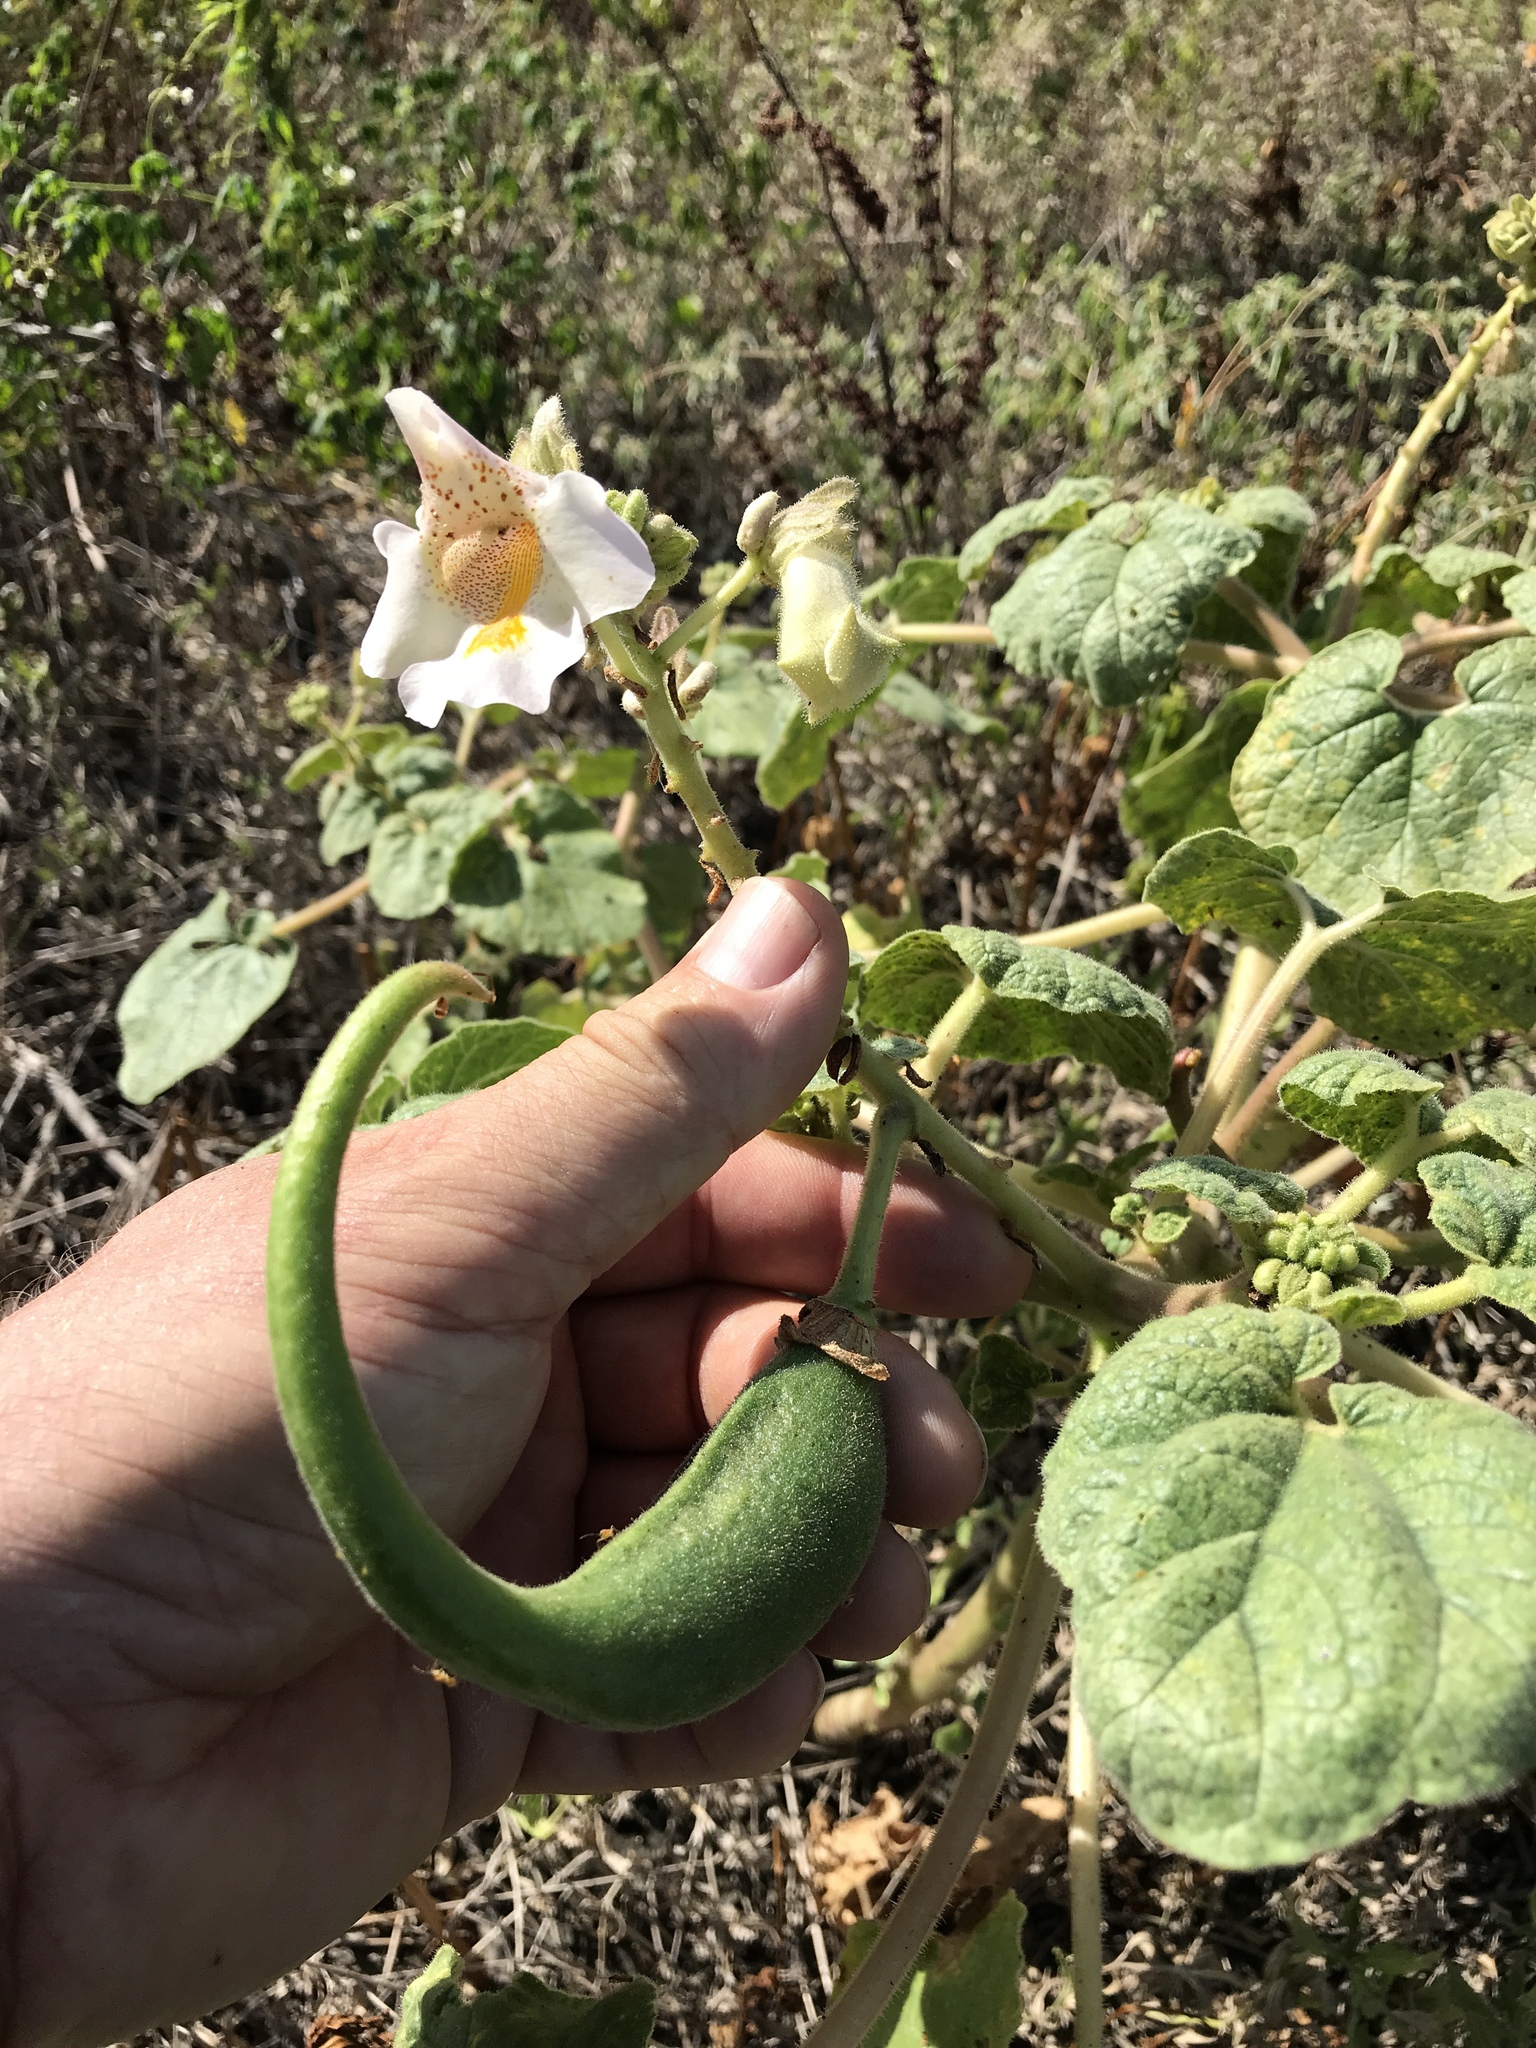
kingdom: Plantae
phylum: Tracheophyta
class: Magnoliopsida
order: Lamiales
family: Martyniaceae
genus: Proboscidea
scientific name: Proboscidea louisianica
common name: Elephant tusks
